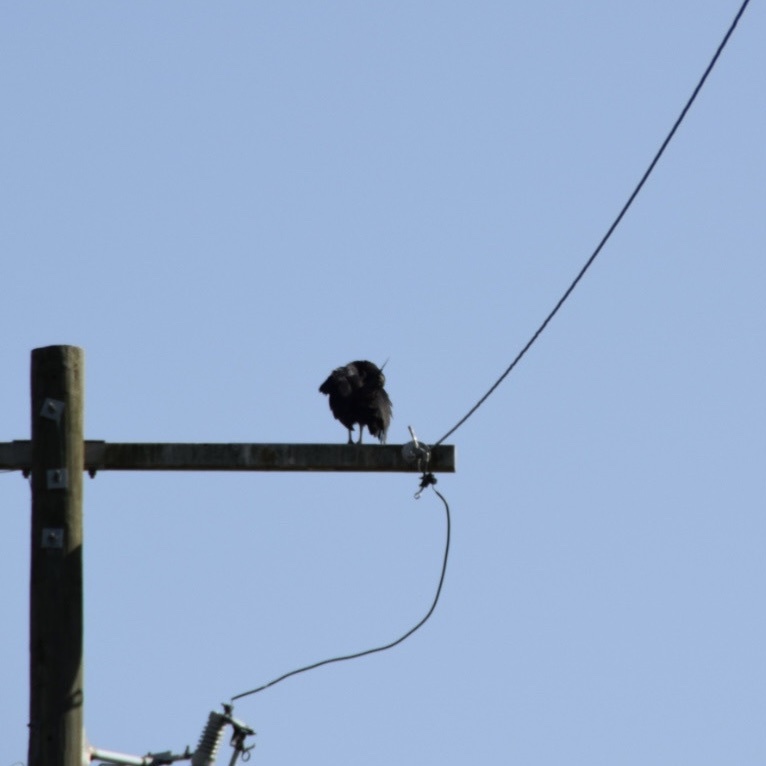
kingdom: Animalia
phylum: Chordata
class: Aves
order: Accipitriformes
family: Cathartidae
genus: Coragyps
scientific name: Coragyps atratus
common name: Black vulture
